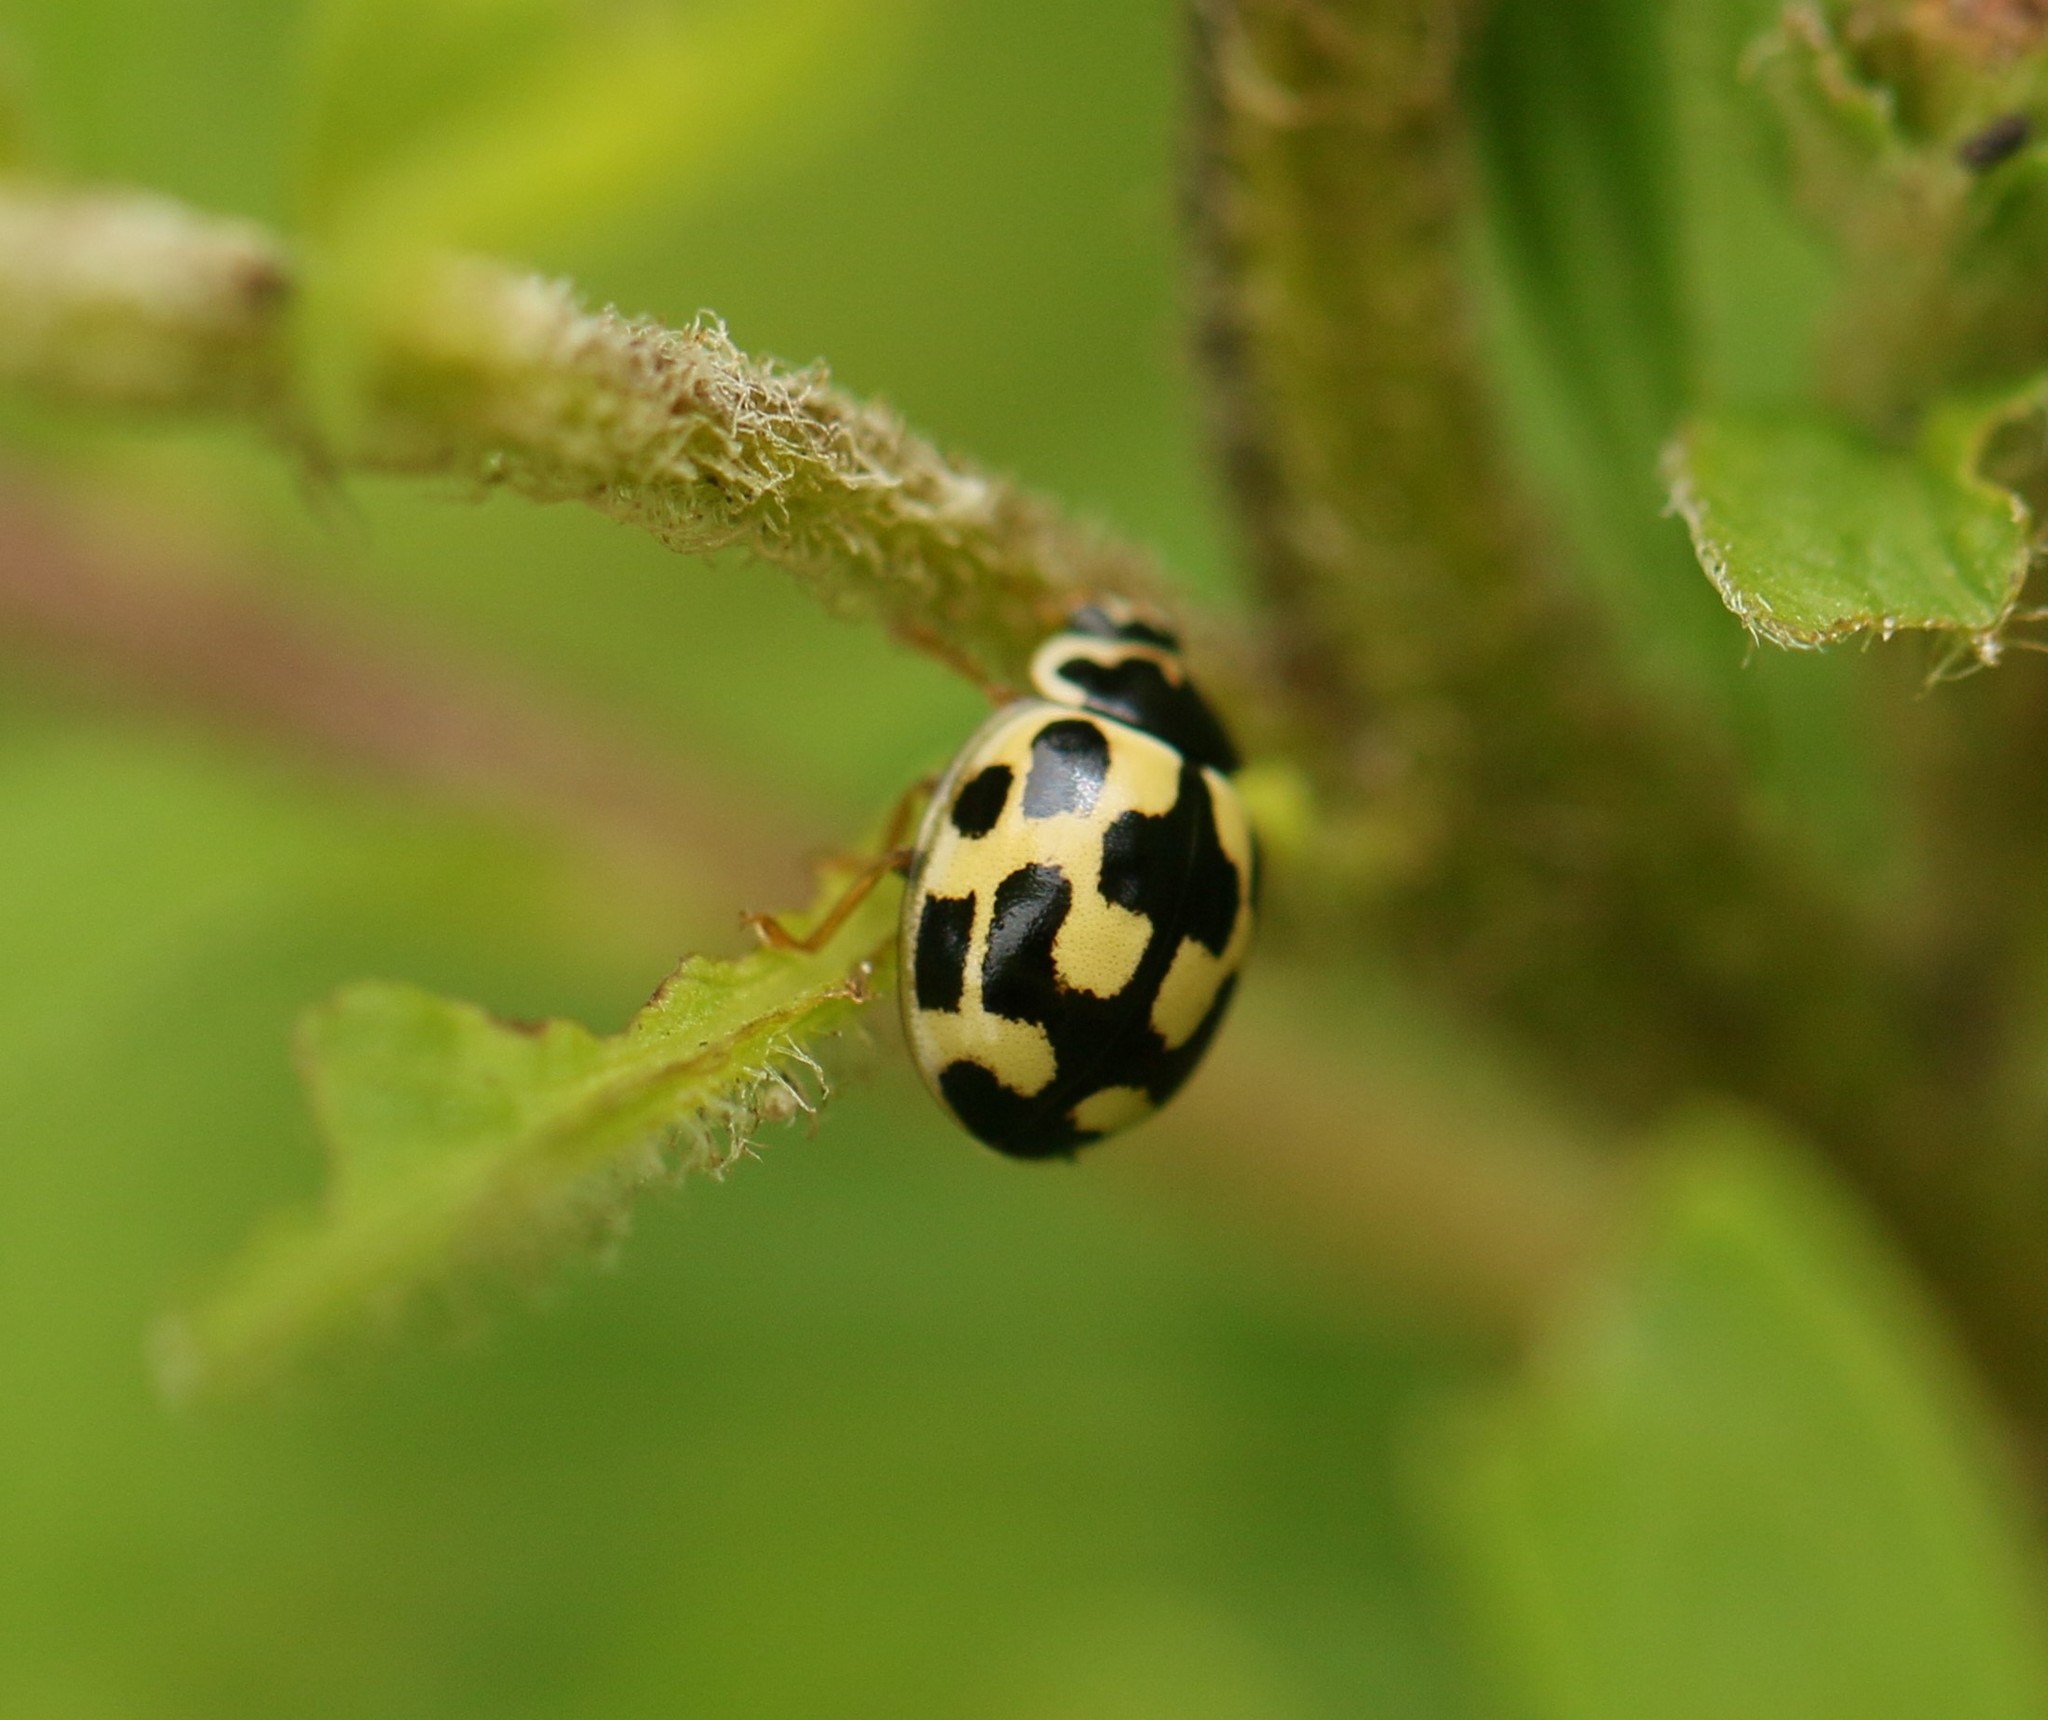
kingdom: Animalia
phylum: Arthropoda
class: Insecta
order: Coleoptera
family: Coccinellidae
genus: Propylaea
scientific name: Propylaea quatuordecimpunctata
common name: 14-spotted ladybird beetle
